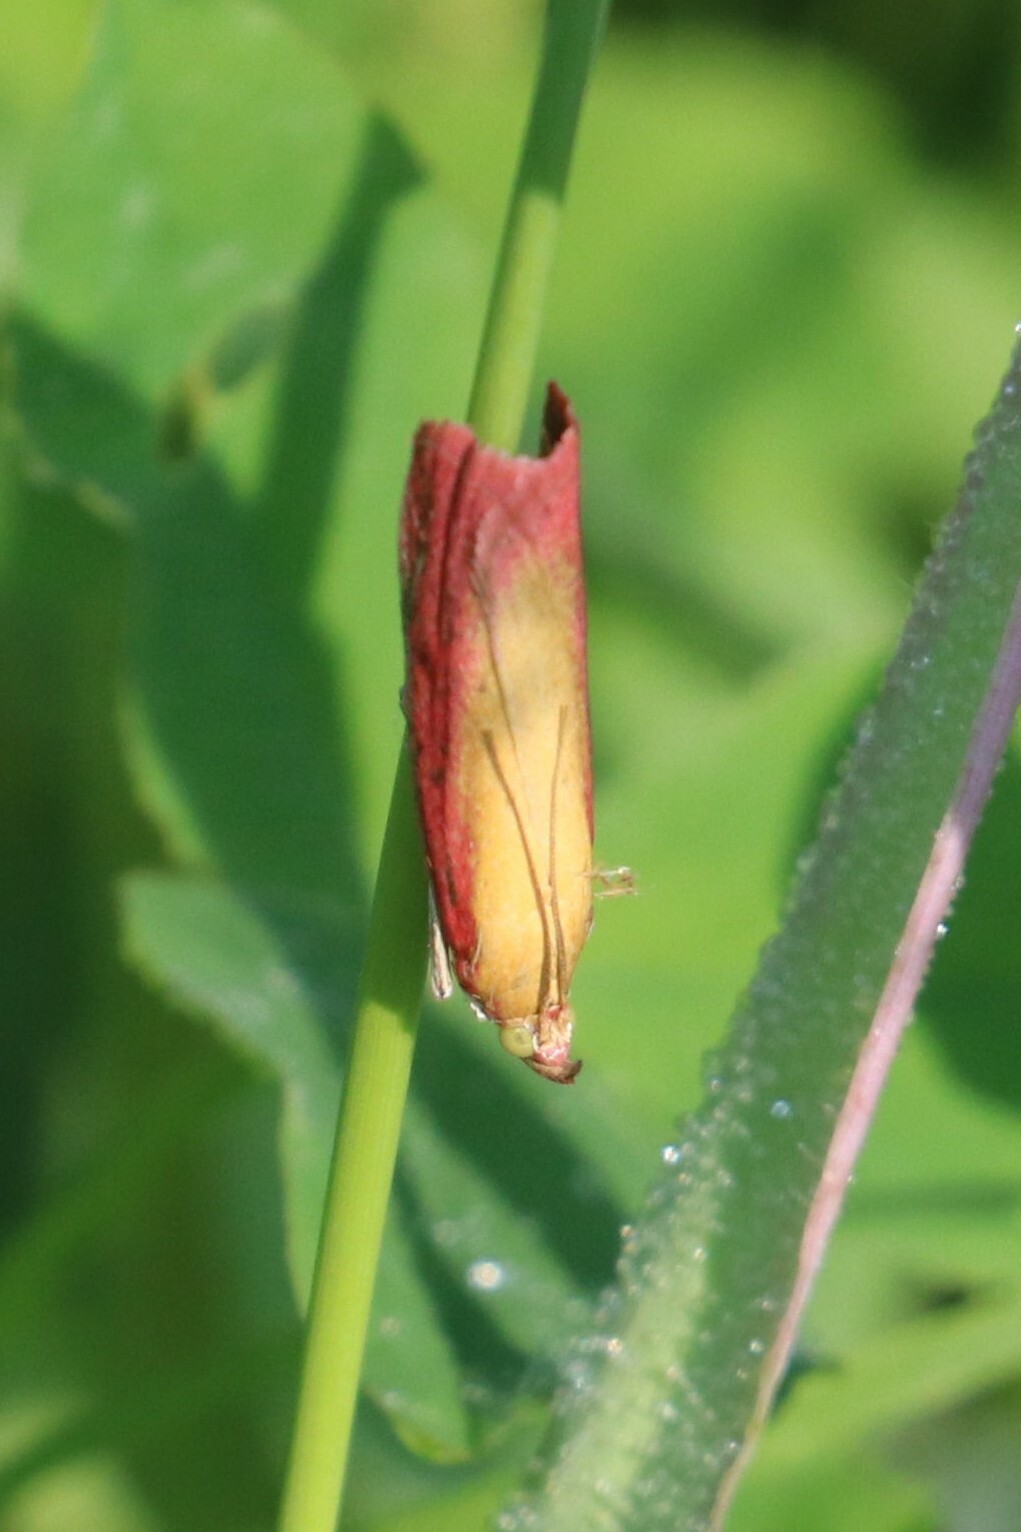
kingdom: Animalia
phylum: Arthropoda
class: Insecta
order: Lepidoptera
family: Pyralidae
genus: Oncocera
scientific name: Oncocera semirubella
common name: Rosy-striped knot-horn
